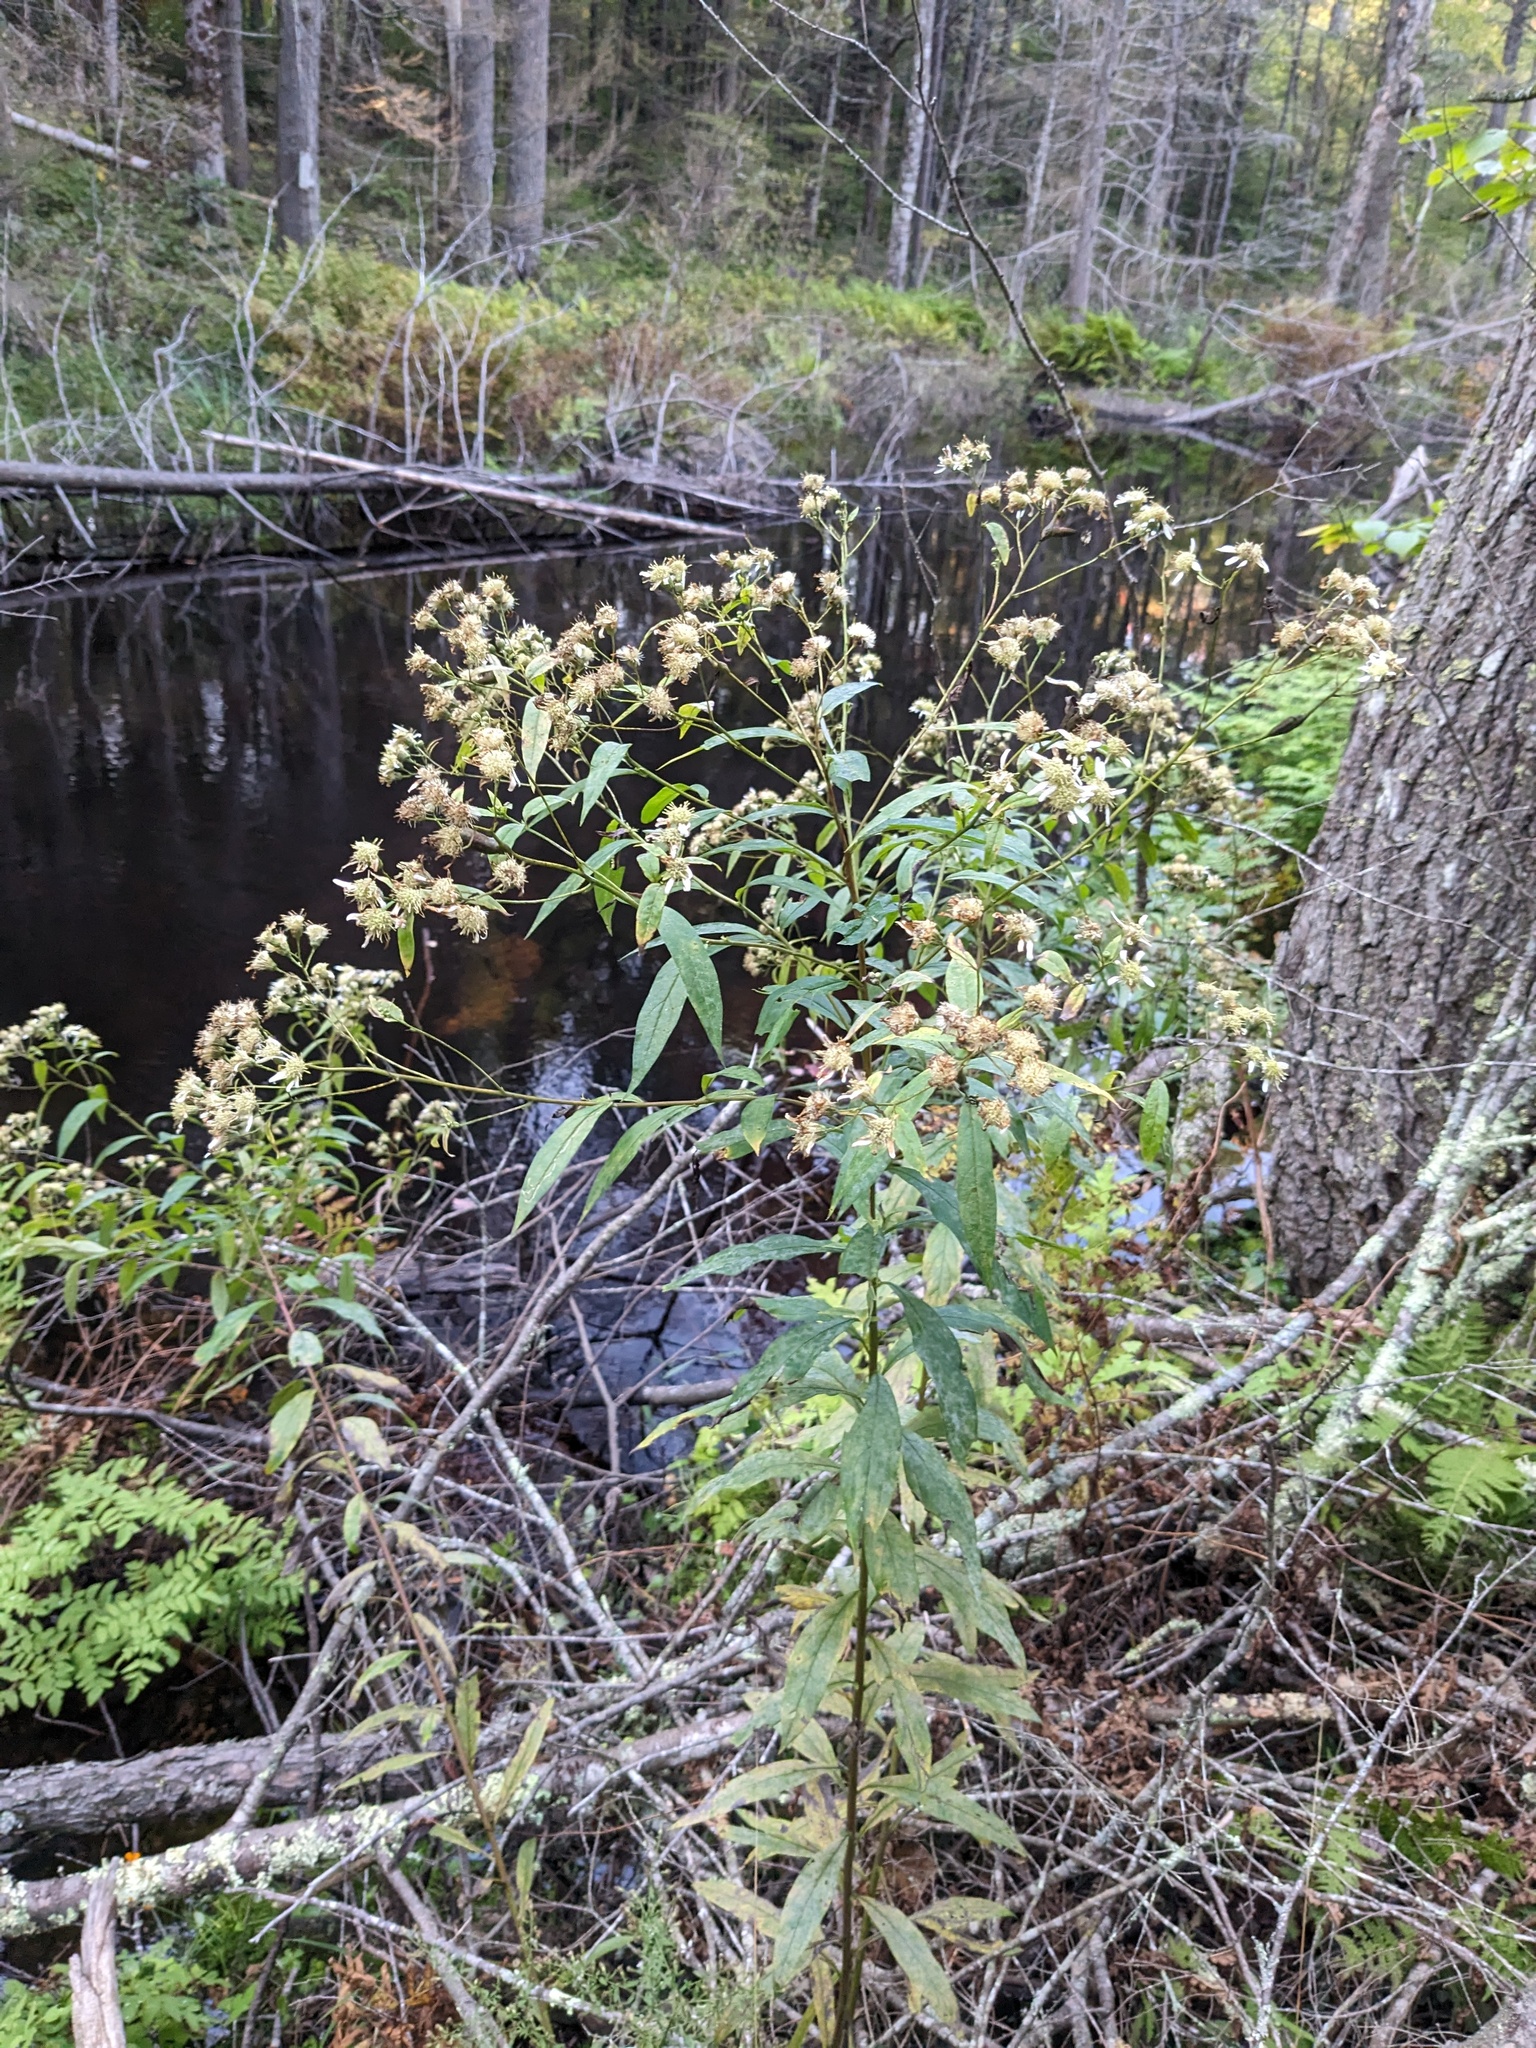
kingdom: Plantae
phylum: Tracheophyta
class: Magnoliopsida
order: Asterales
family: Asteraceae
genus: Doellingeria
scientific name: Doellingeria umbellata
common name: Flat-top white aster
